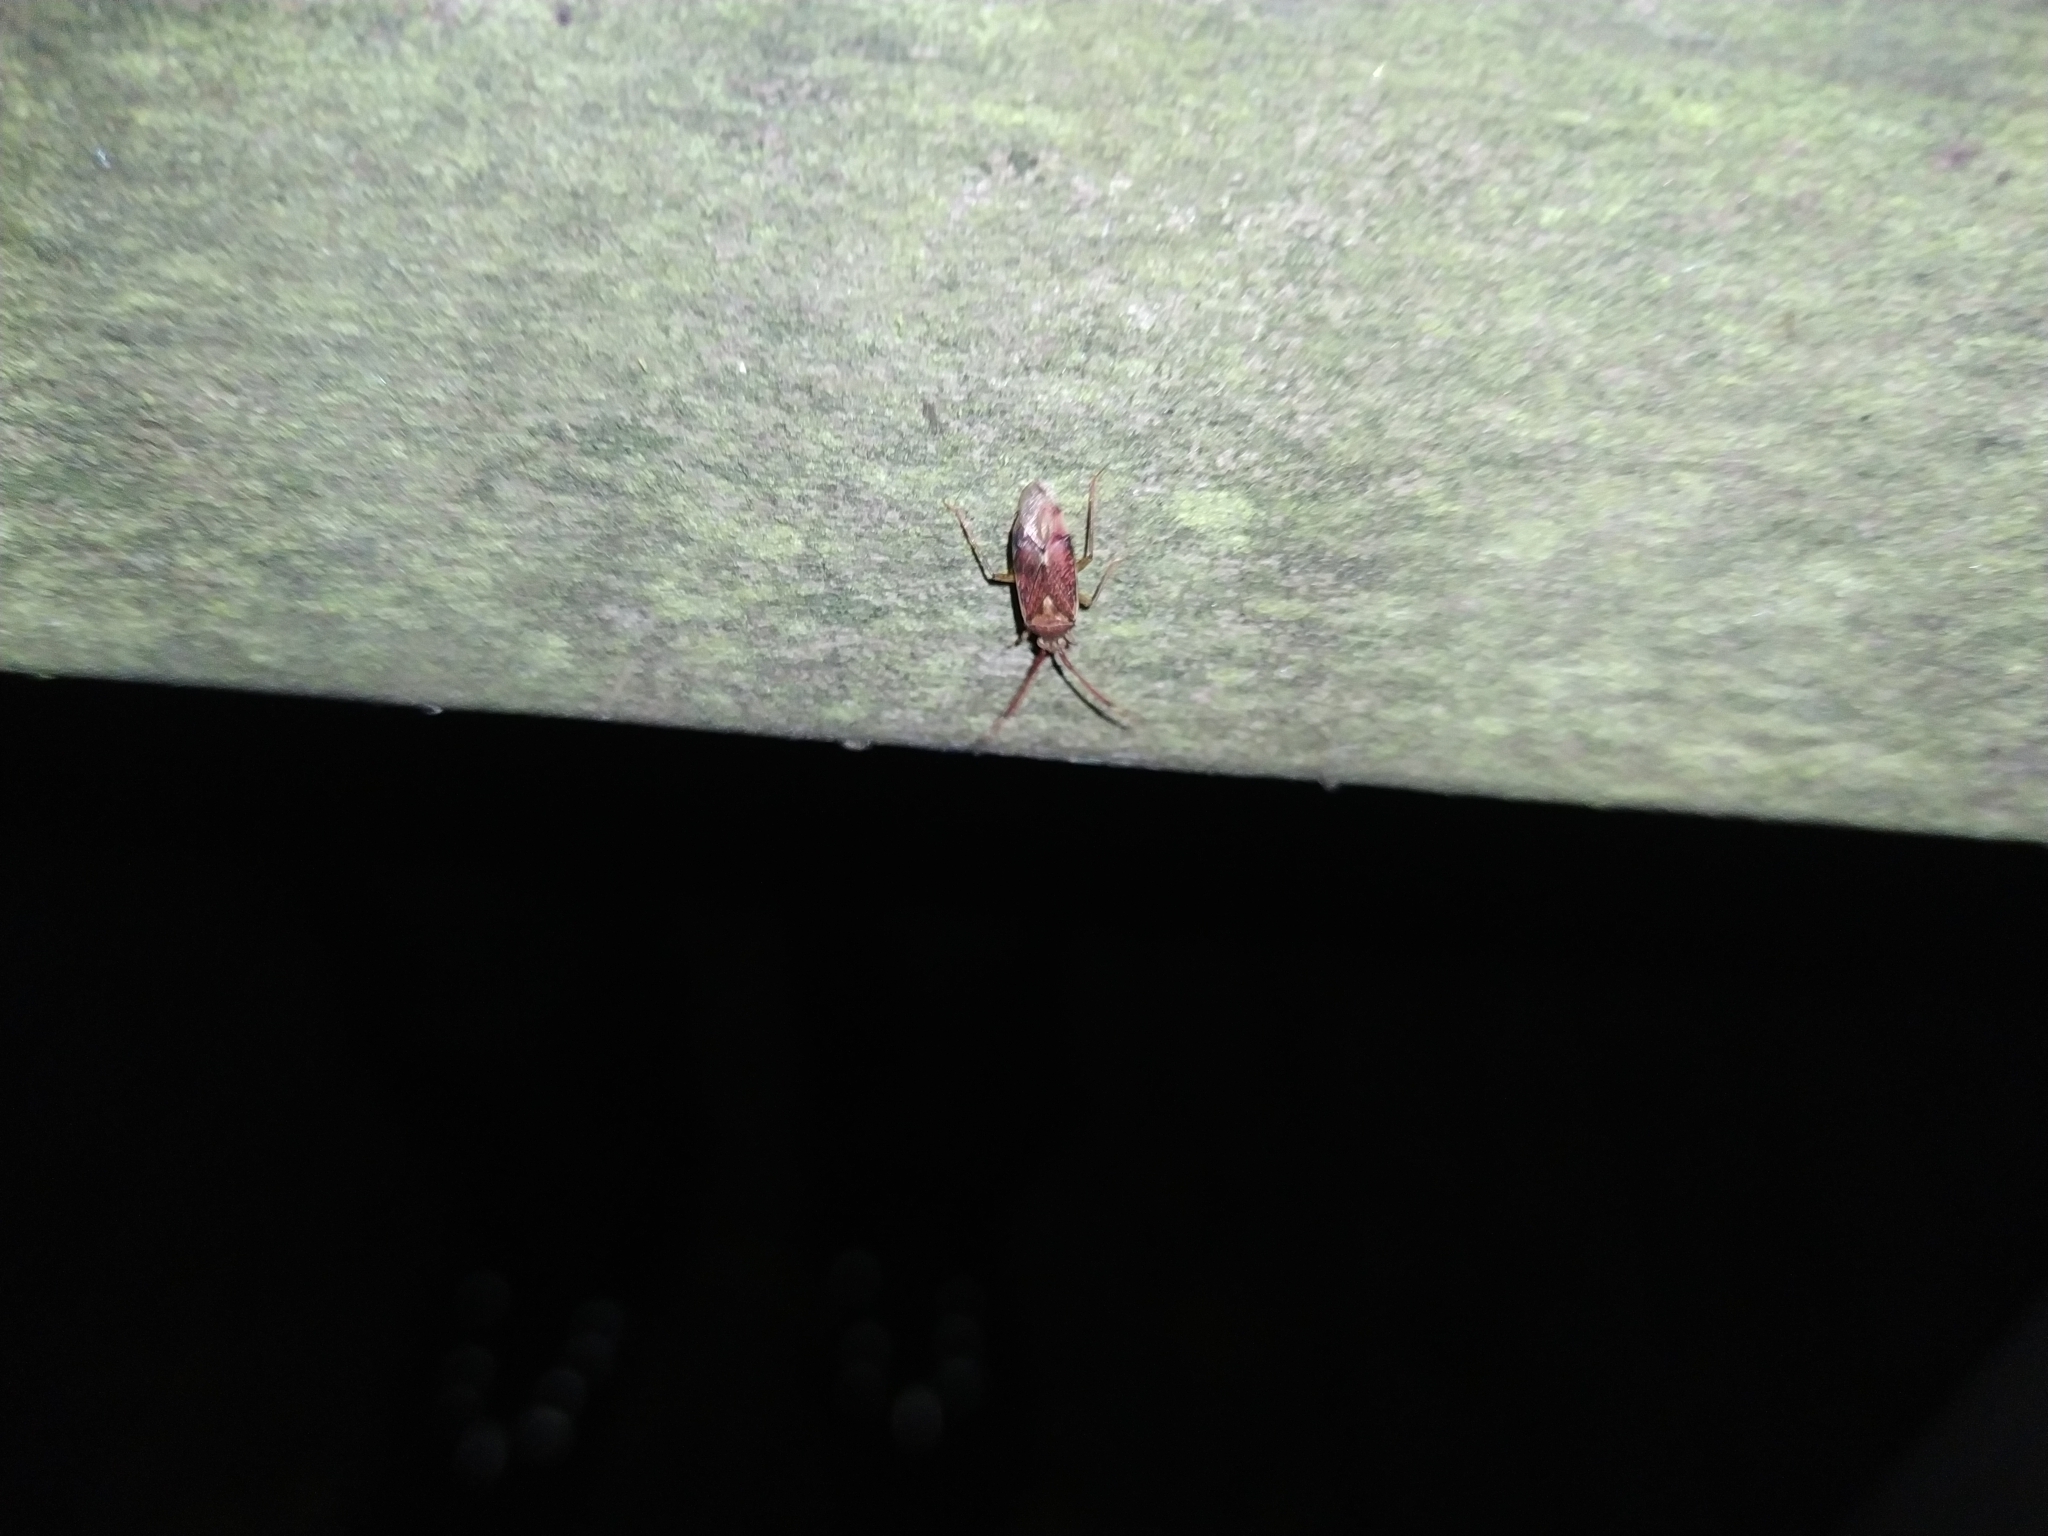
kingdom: Animalia
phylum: Arthropoda
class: Insecta
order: Hemiptera
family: Miridae
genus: Pantilius
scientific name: Pantilius tunicatus
